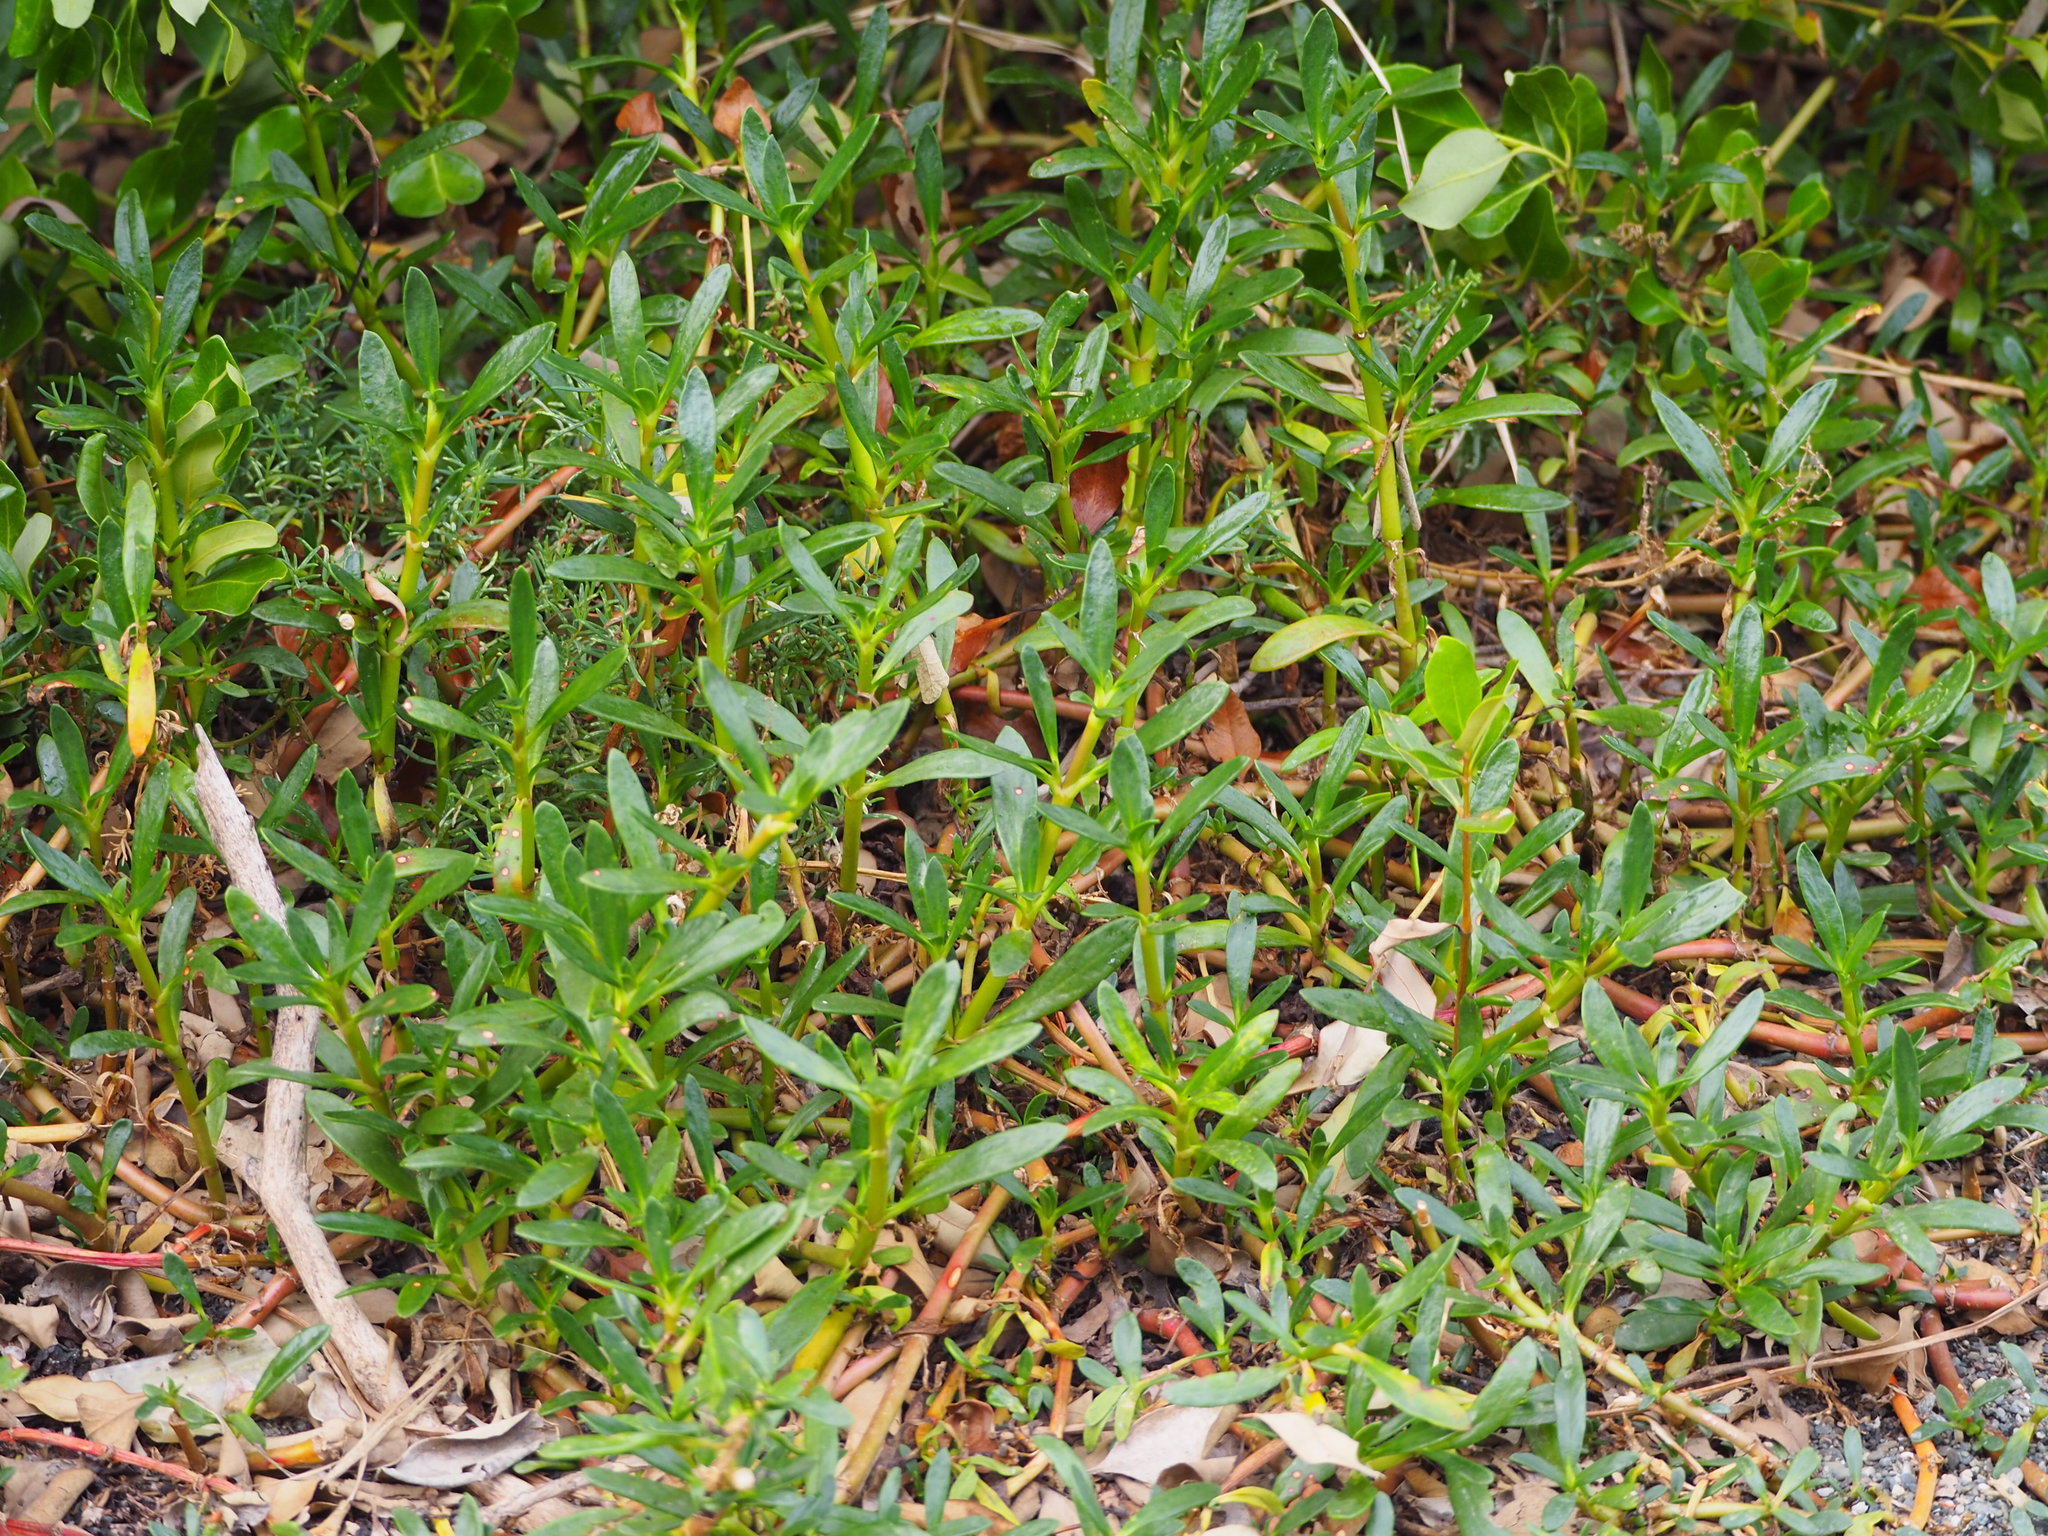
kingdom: Plantae
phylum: Tracheophyta
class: Magnoliopsida
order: Caryophyllales
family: Aizoaceae
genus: Sesuvium
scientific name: Sesuvium portulacastrum
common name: Sea-purslane
